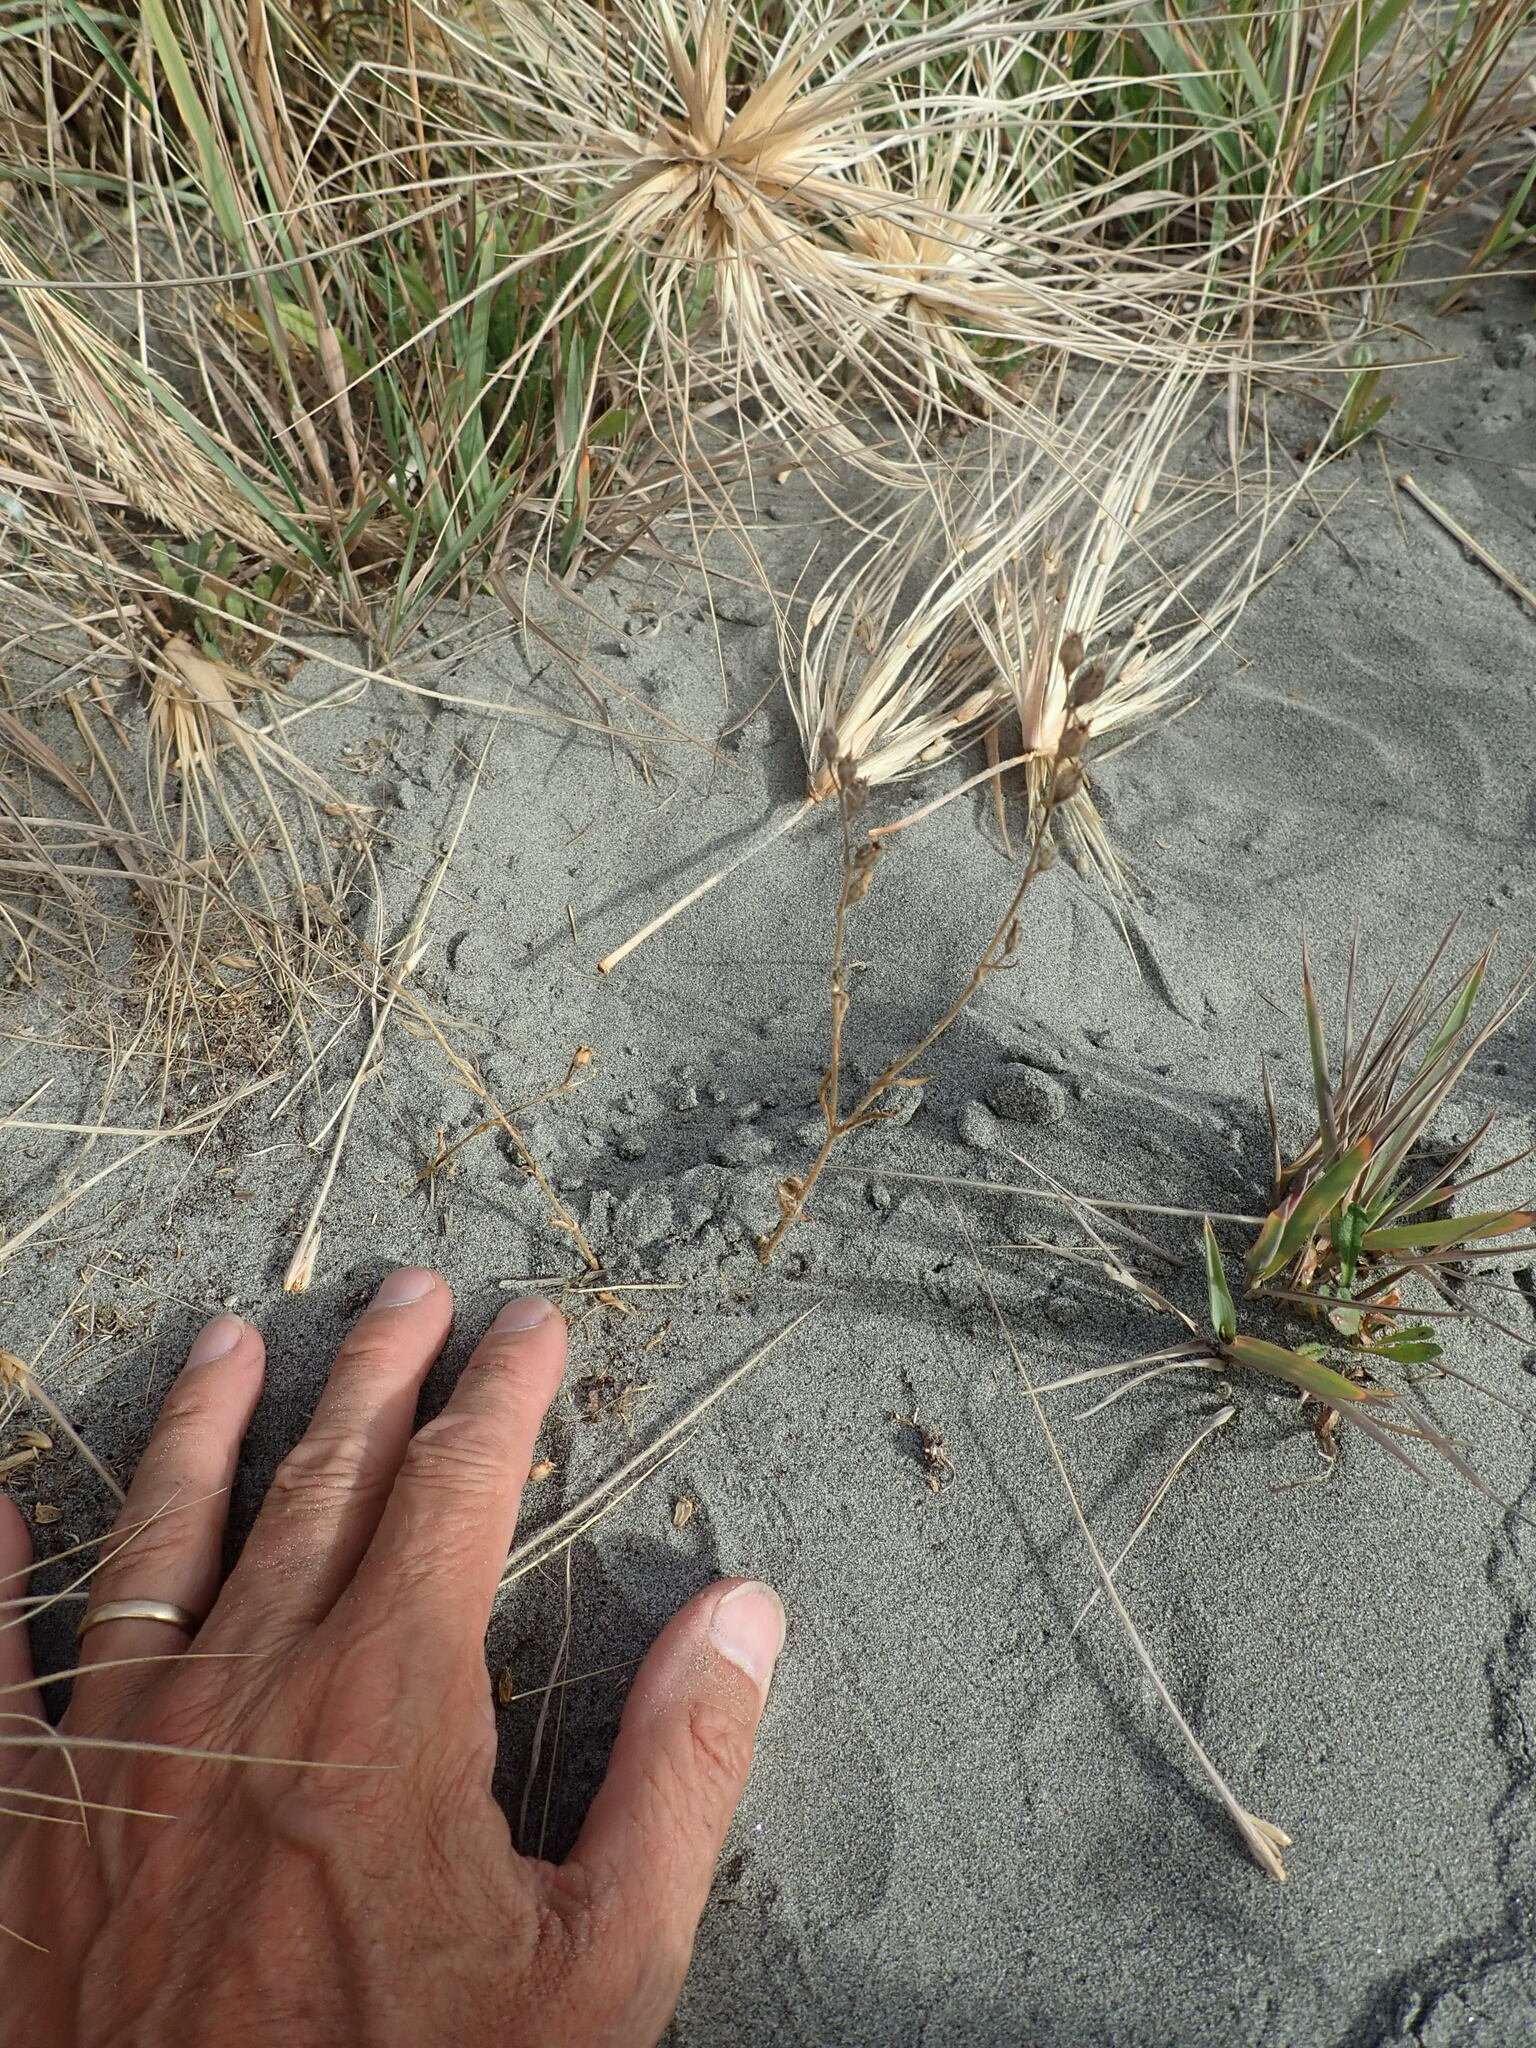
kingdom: Plantae
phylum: Tracheophyta
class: Magnoliopsida
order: Caryophyllales
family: Caryophyllaceae
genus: Silene
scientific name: Silene gallica
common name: Small-flowered catchfly
